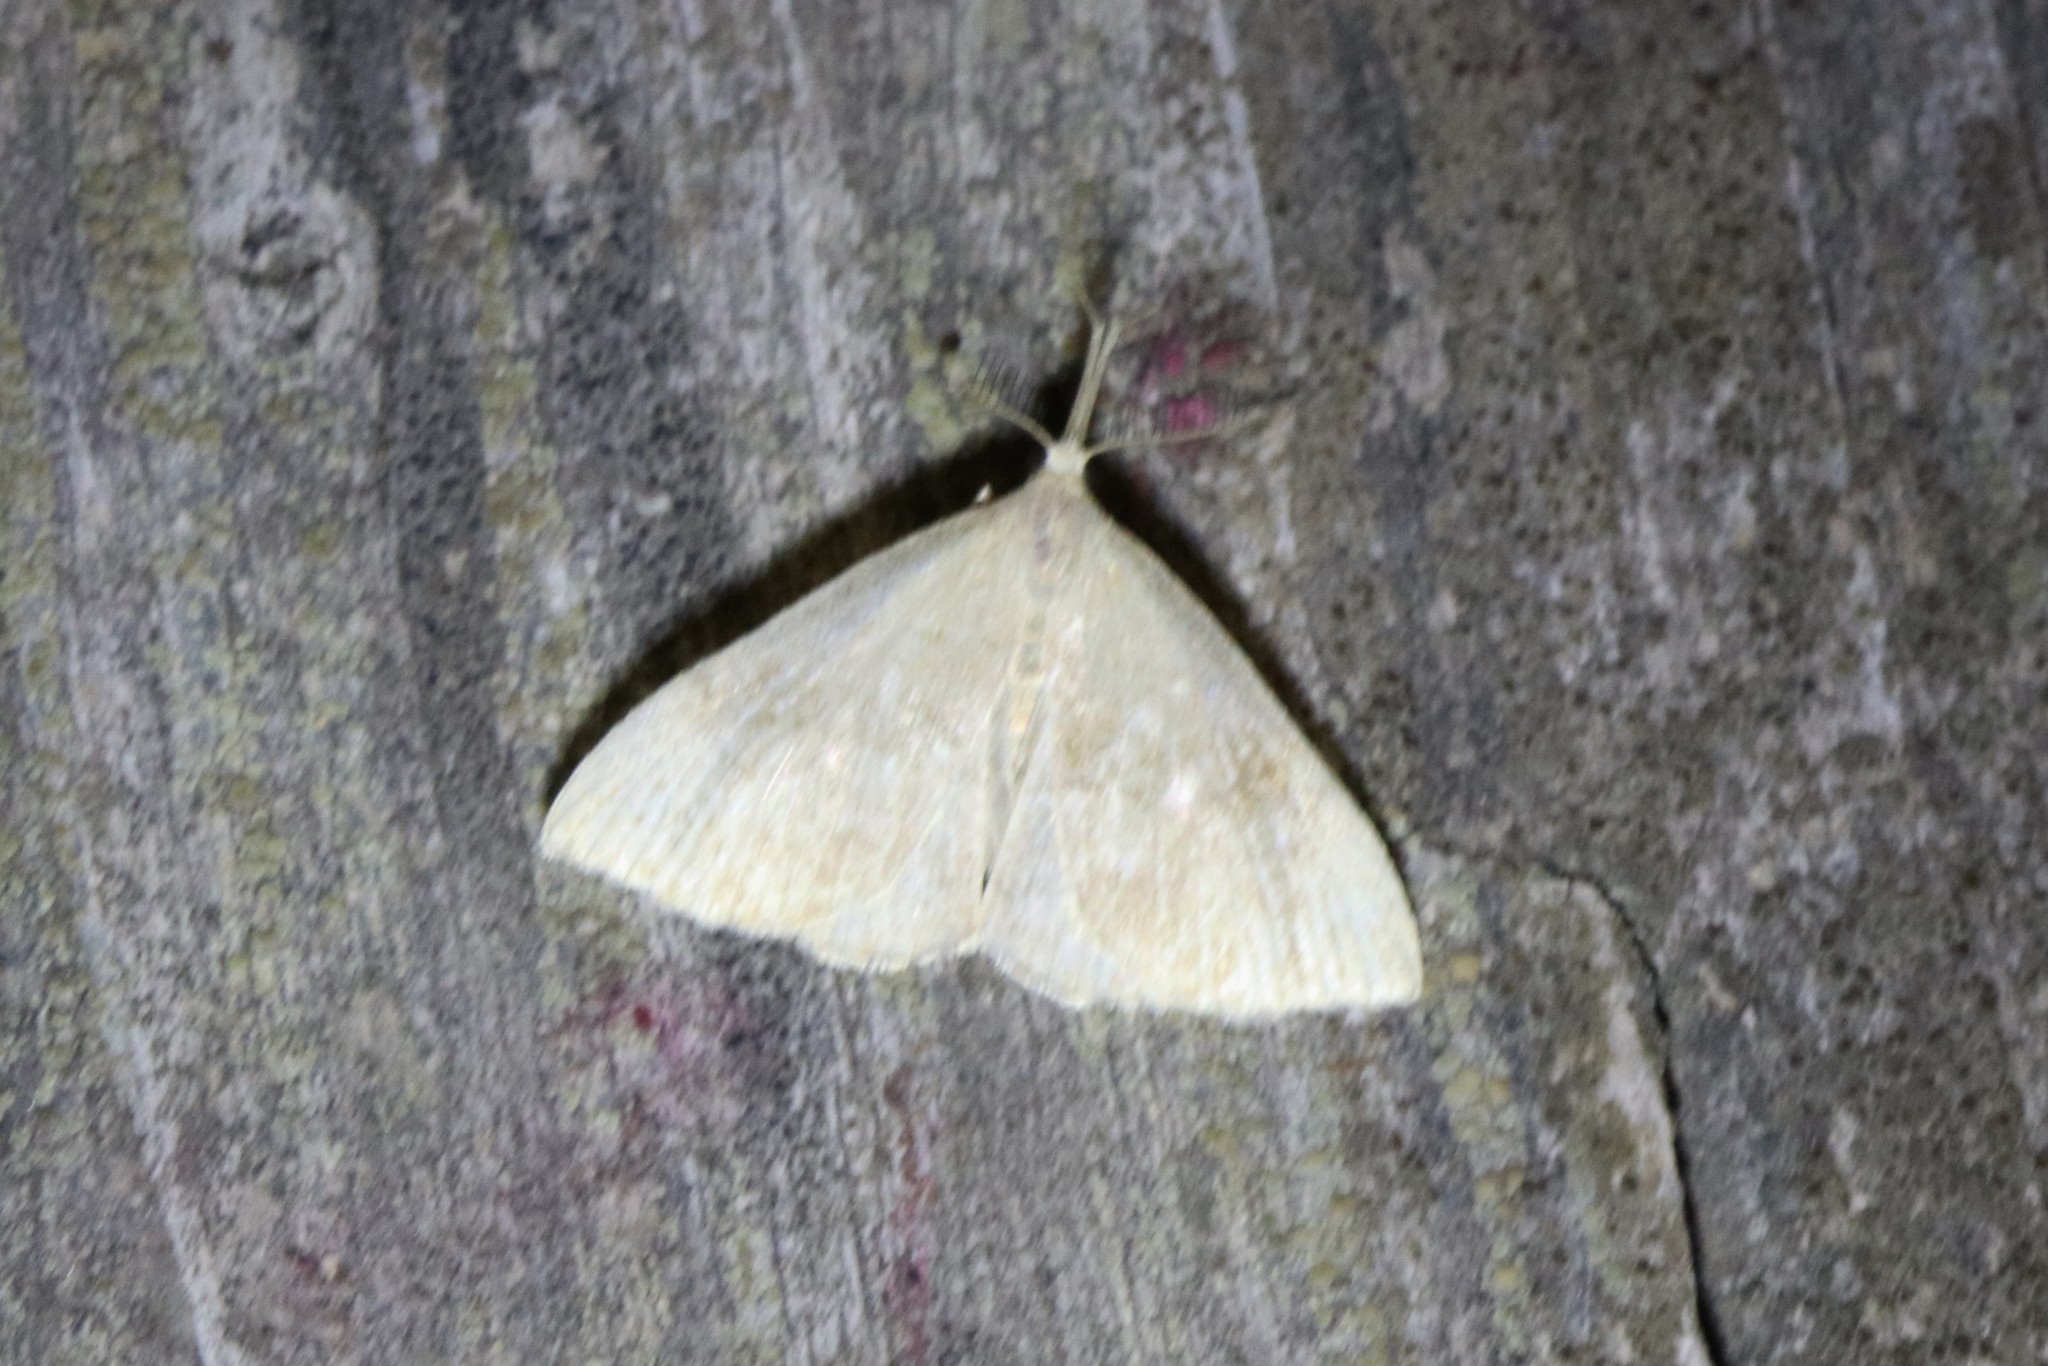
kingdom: Animalia
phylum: Arthropoda
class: Insecta
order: Lepidoptera
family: Erebidae
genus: Phalaenostola
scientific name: Phalaenostola metonalis
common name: Pale phalaenostola moth
